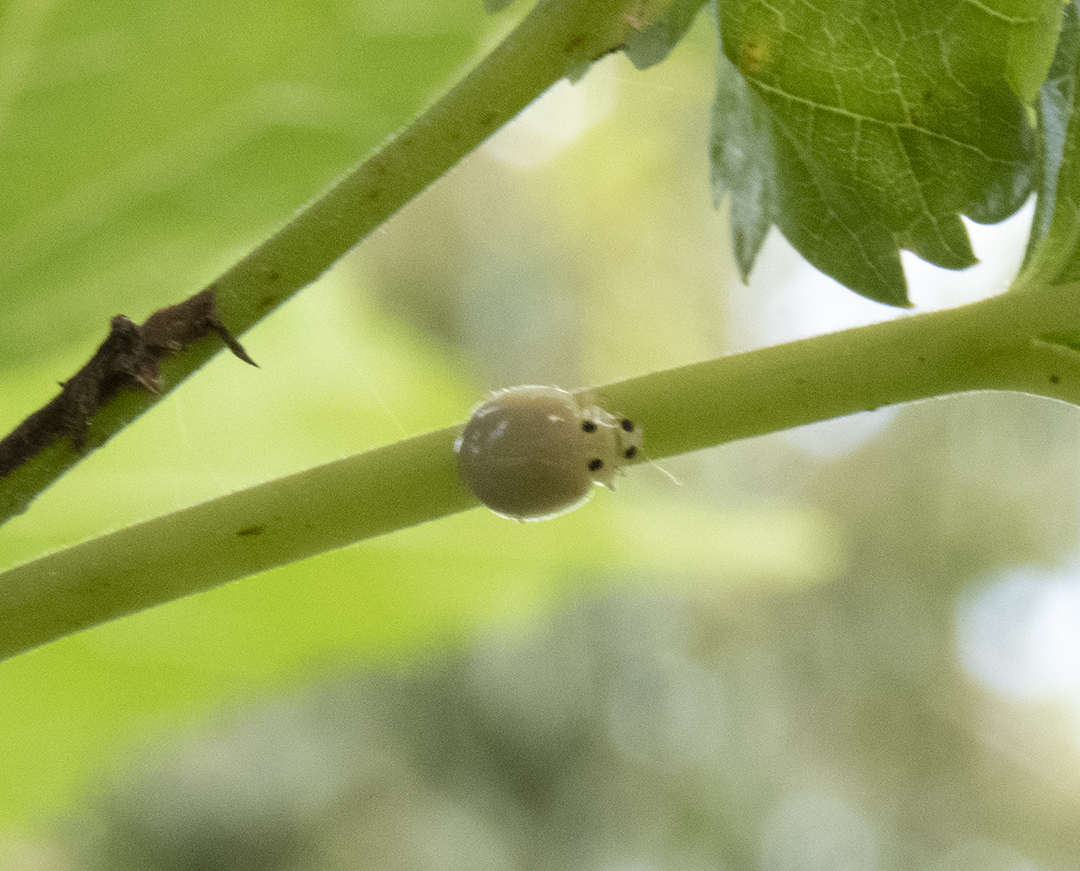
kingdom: Animalia
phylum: Arthropoda
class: Insecta
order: Coleoptera
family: Coccinellidae
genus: Illeis
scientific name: Illeis confusa
